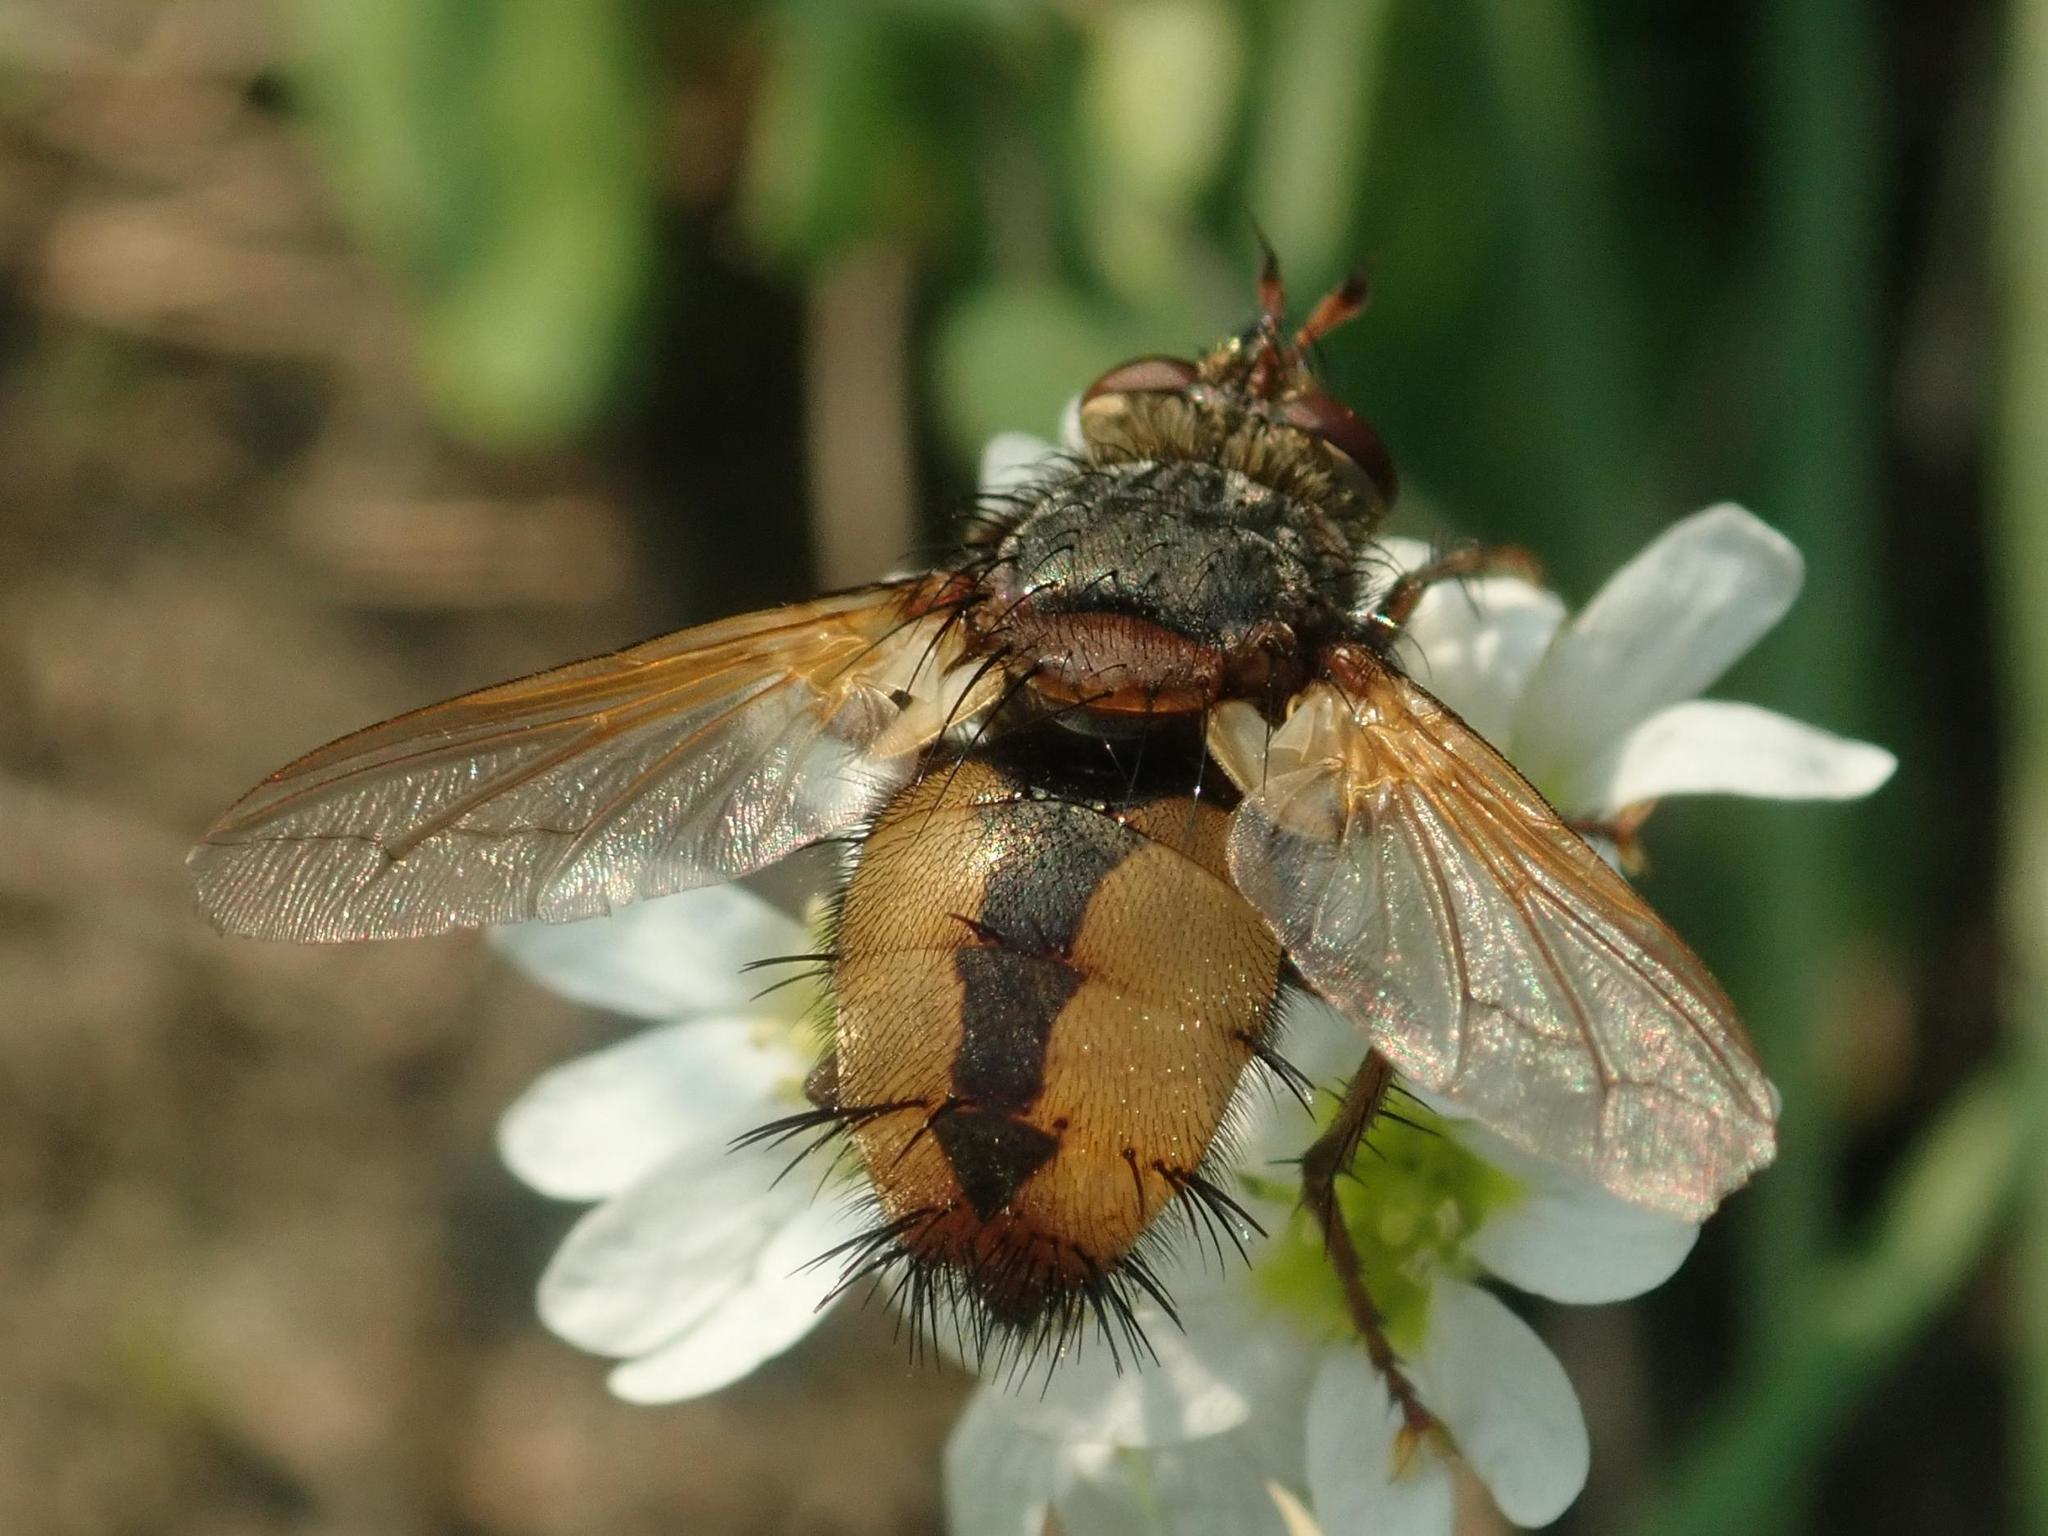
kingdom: Animalia
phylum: Arthropoda
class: Insecta
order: Diptera
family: Tachinidae
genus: Tachina
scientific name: Tachina fera
